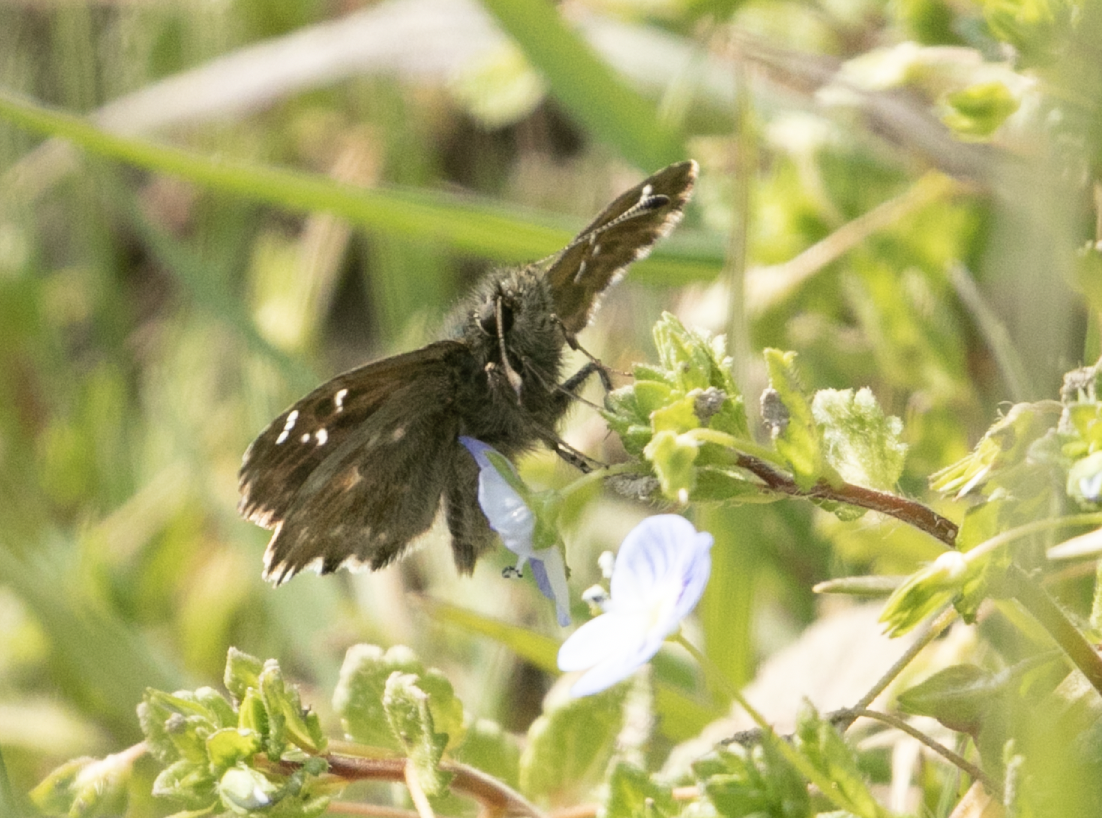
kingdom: Animalia
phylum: Arthropoda
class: Insecta
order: Lepidoptera
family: Hesperiidae
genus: Carcharodus
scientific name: Carcharodus alceae
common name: Mallow skipper
